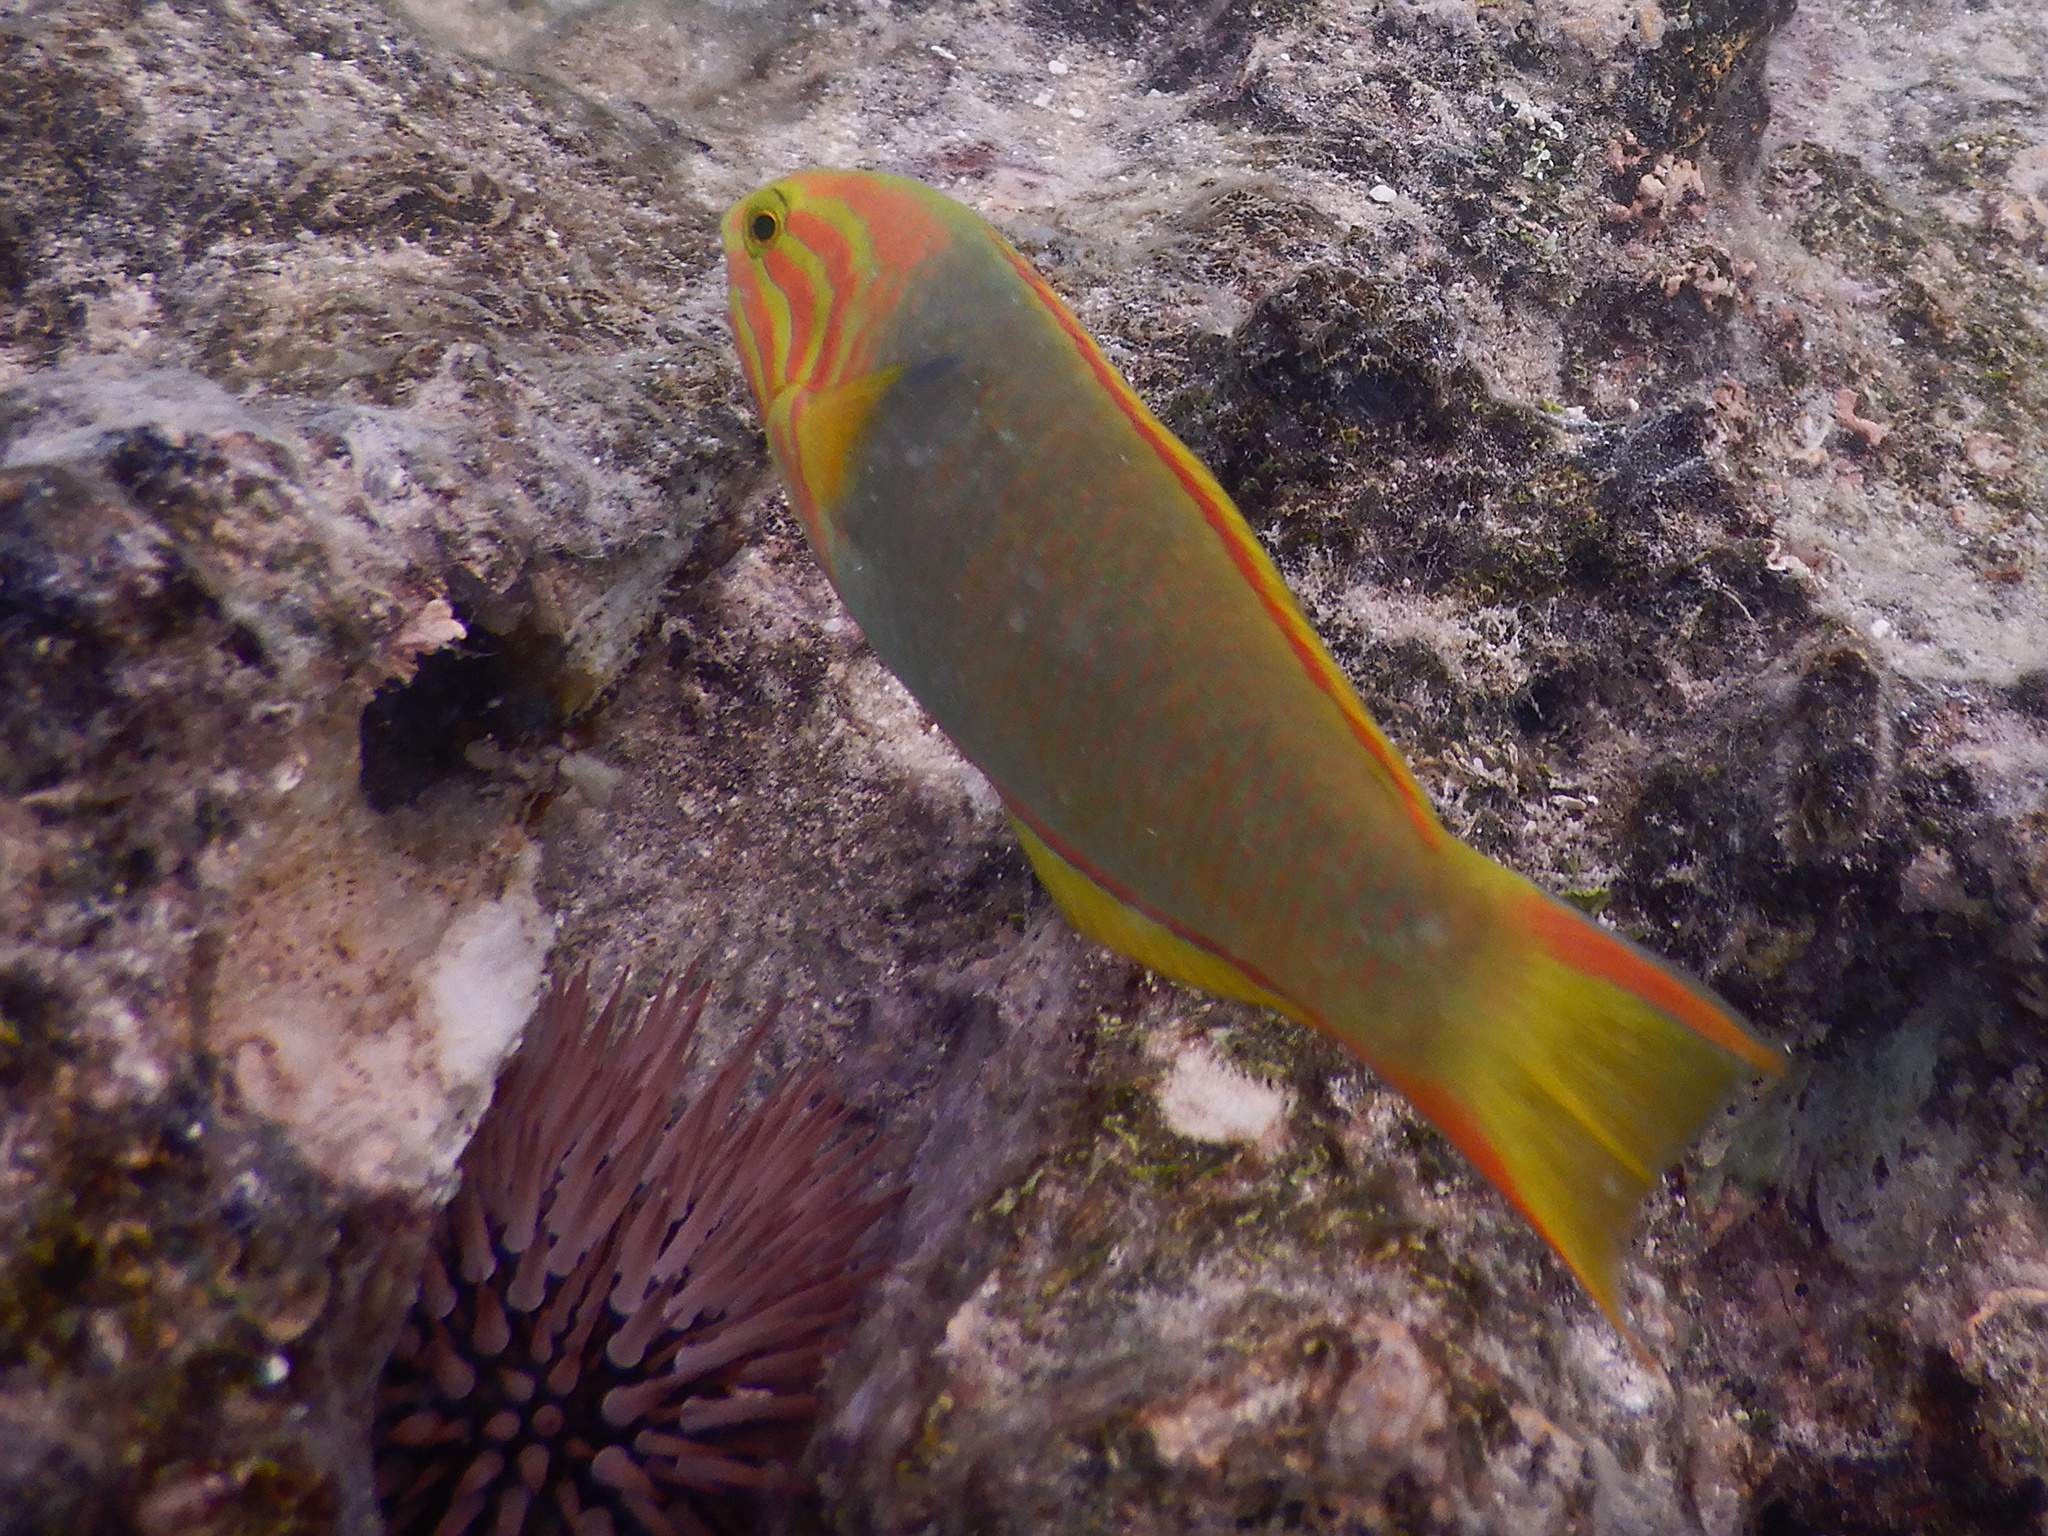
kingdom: Animalia
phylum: Chordata
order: Perciformes
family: Labridae
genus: Thalassoma
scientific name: Thalassoma lutescens
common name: Green moon wrasse
